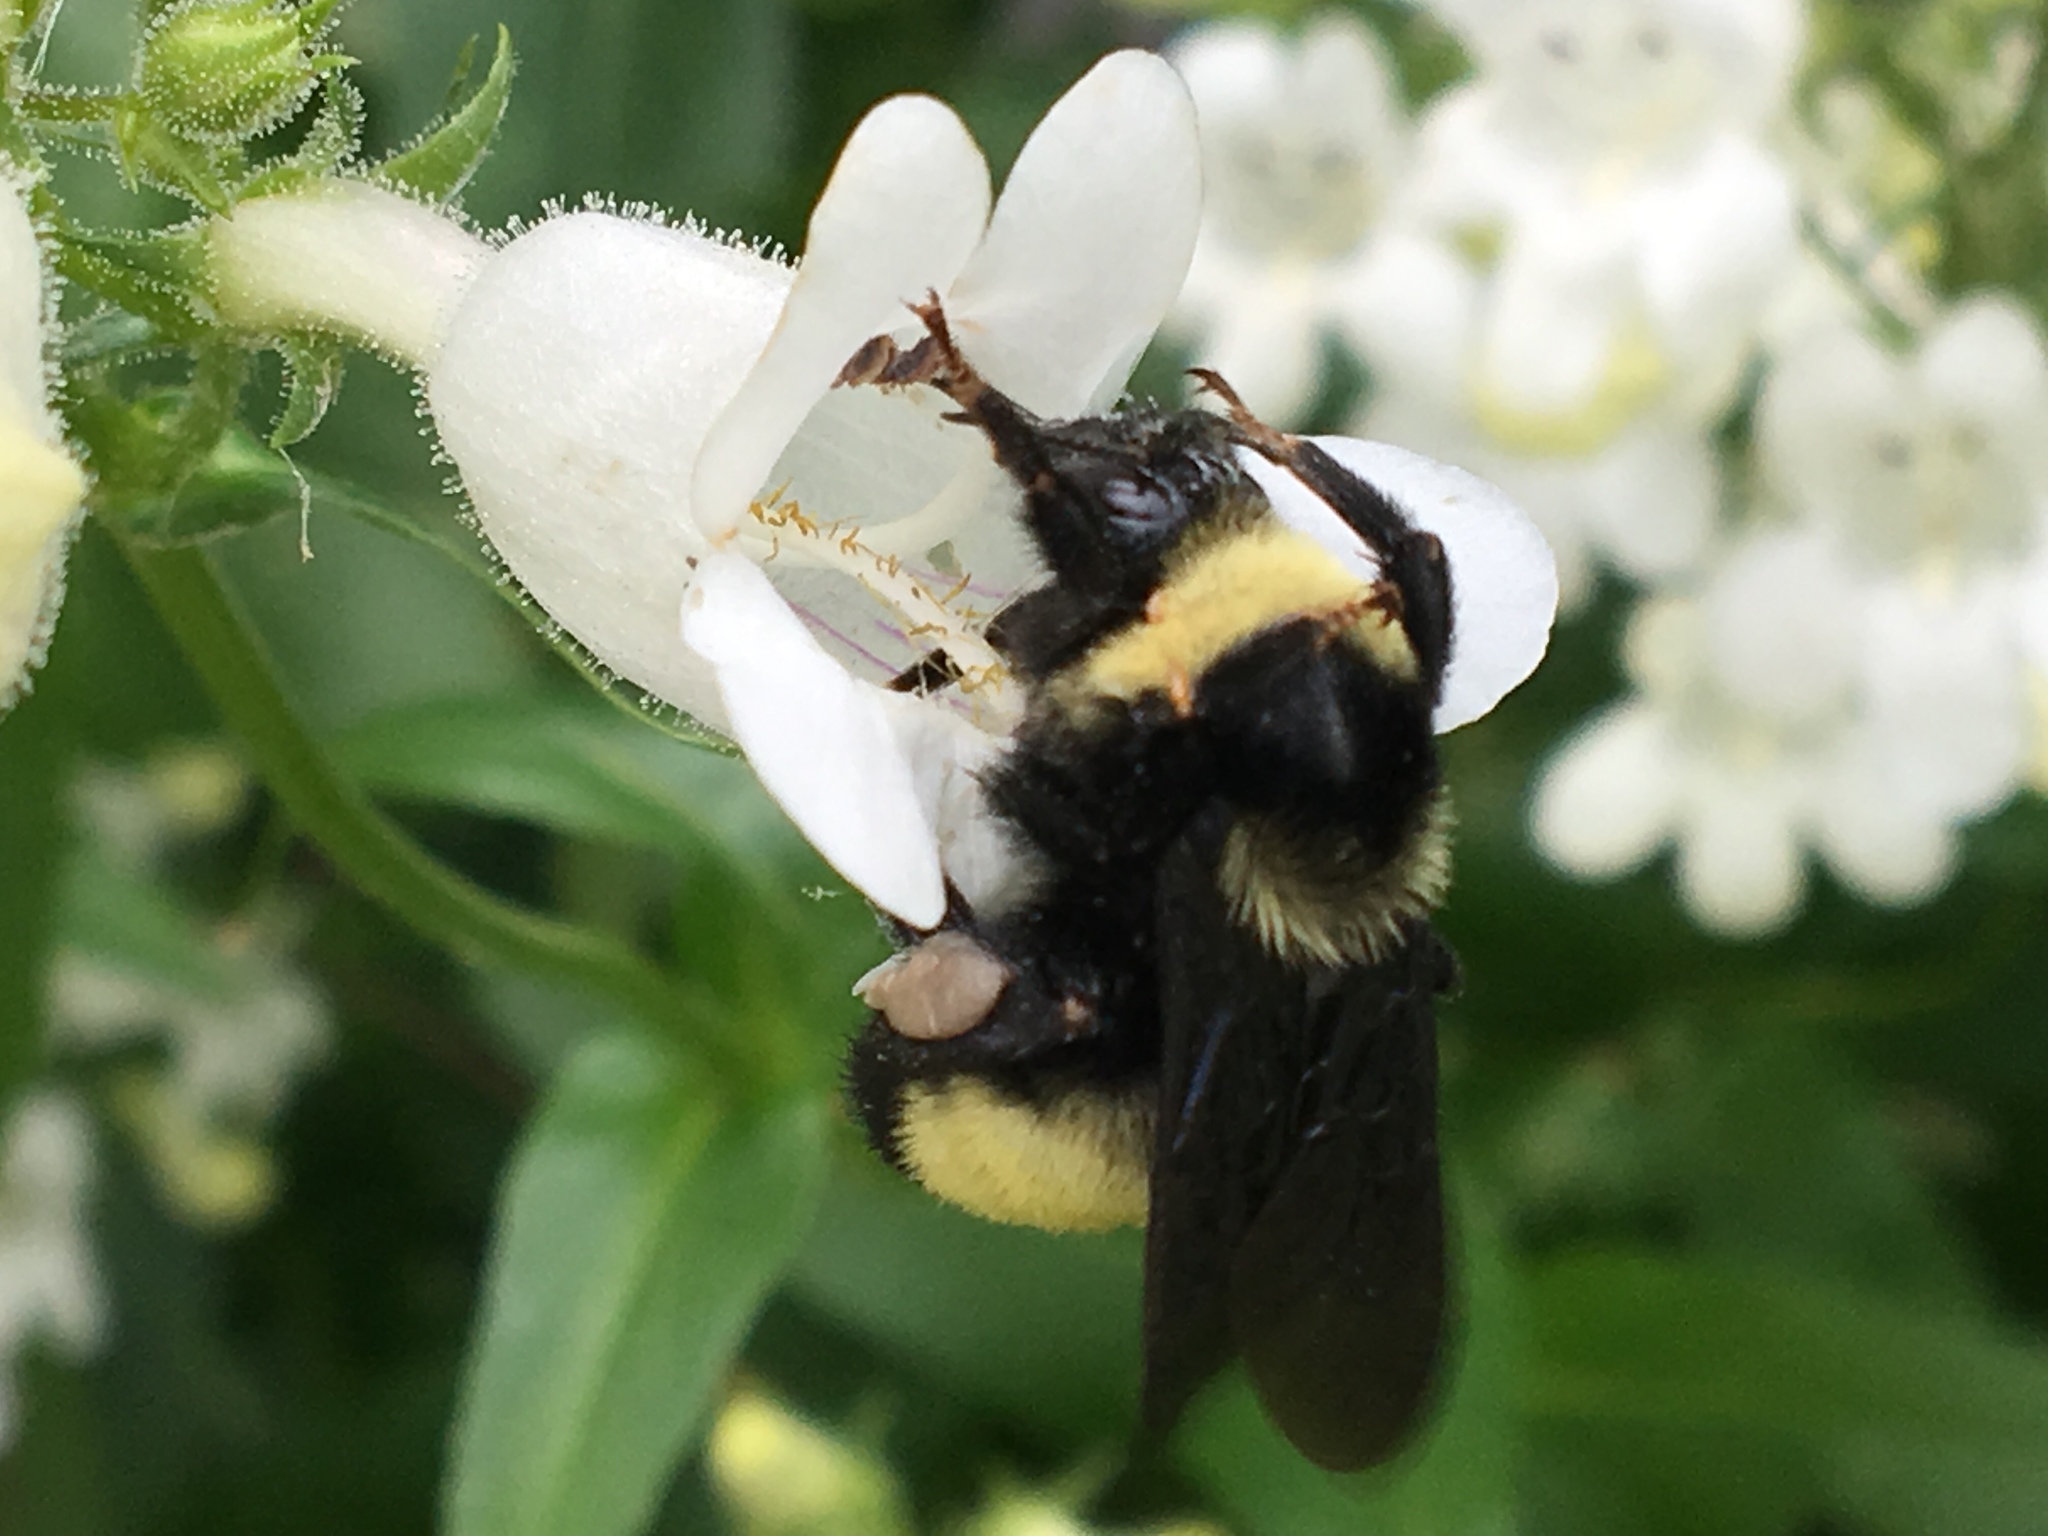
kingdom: Animalia
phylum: Arthropoda
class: Insecta
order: Hymenoptera
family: Apidae
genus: Bombus
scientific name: Bombus auricomus
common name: Black and gold bumble bee
